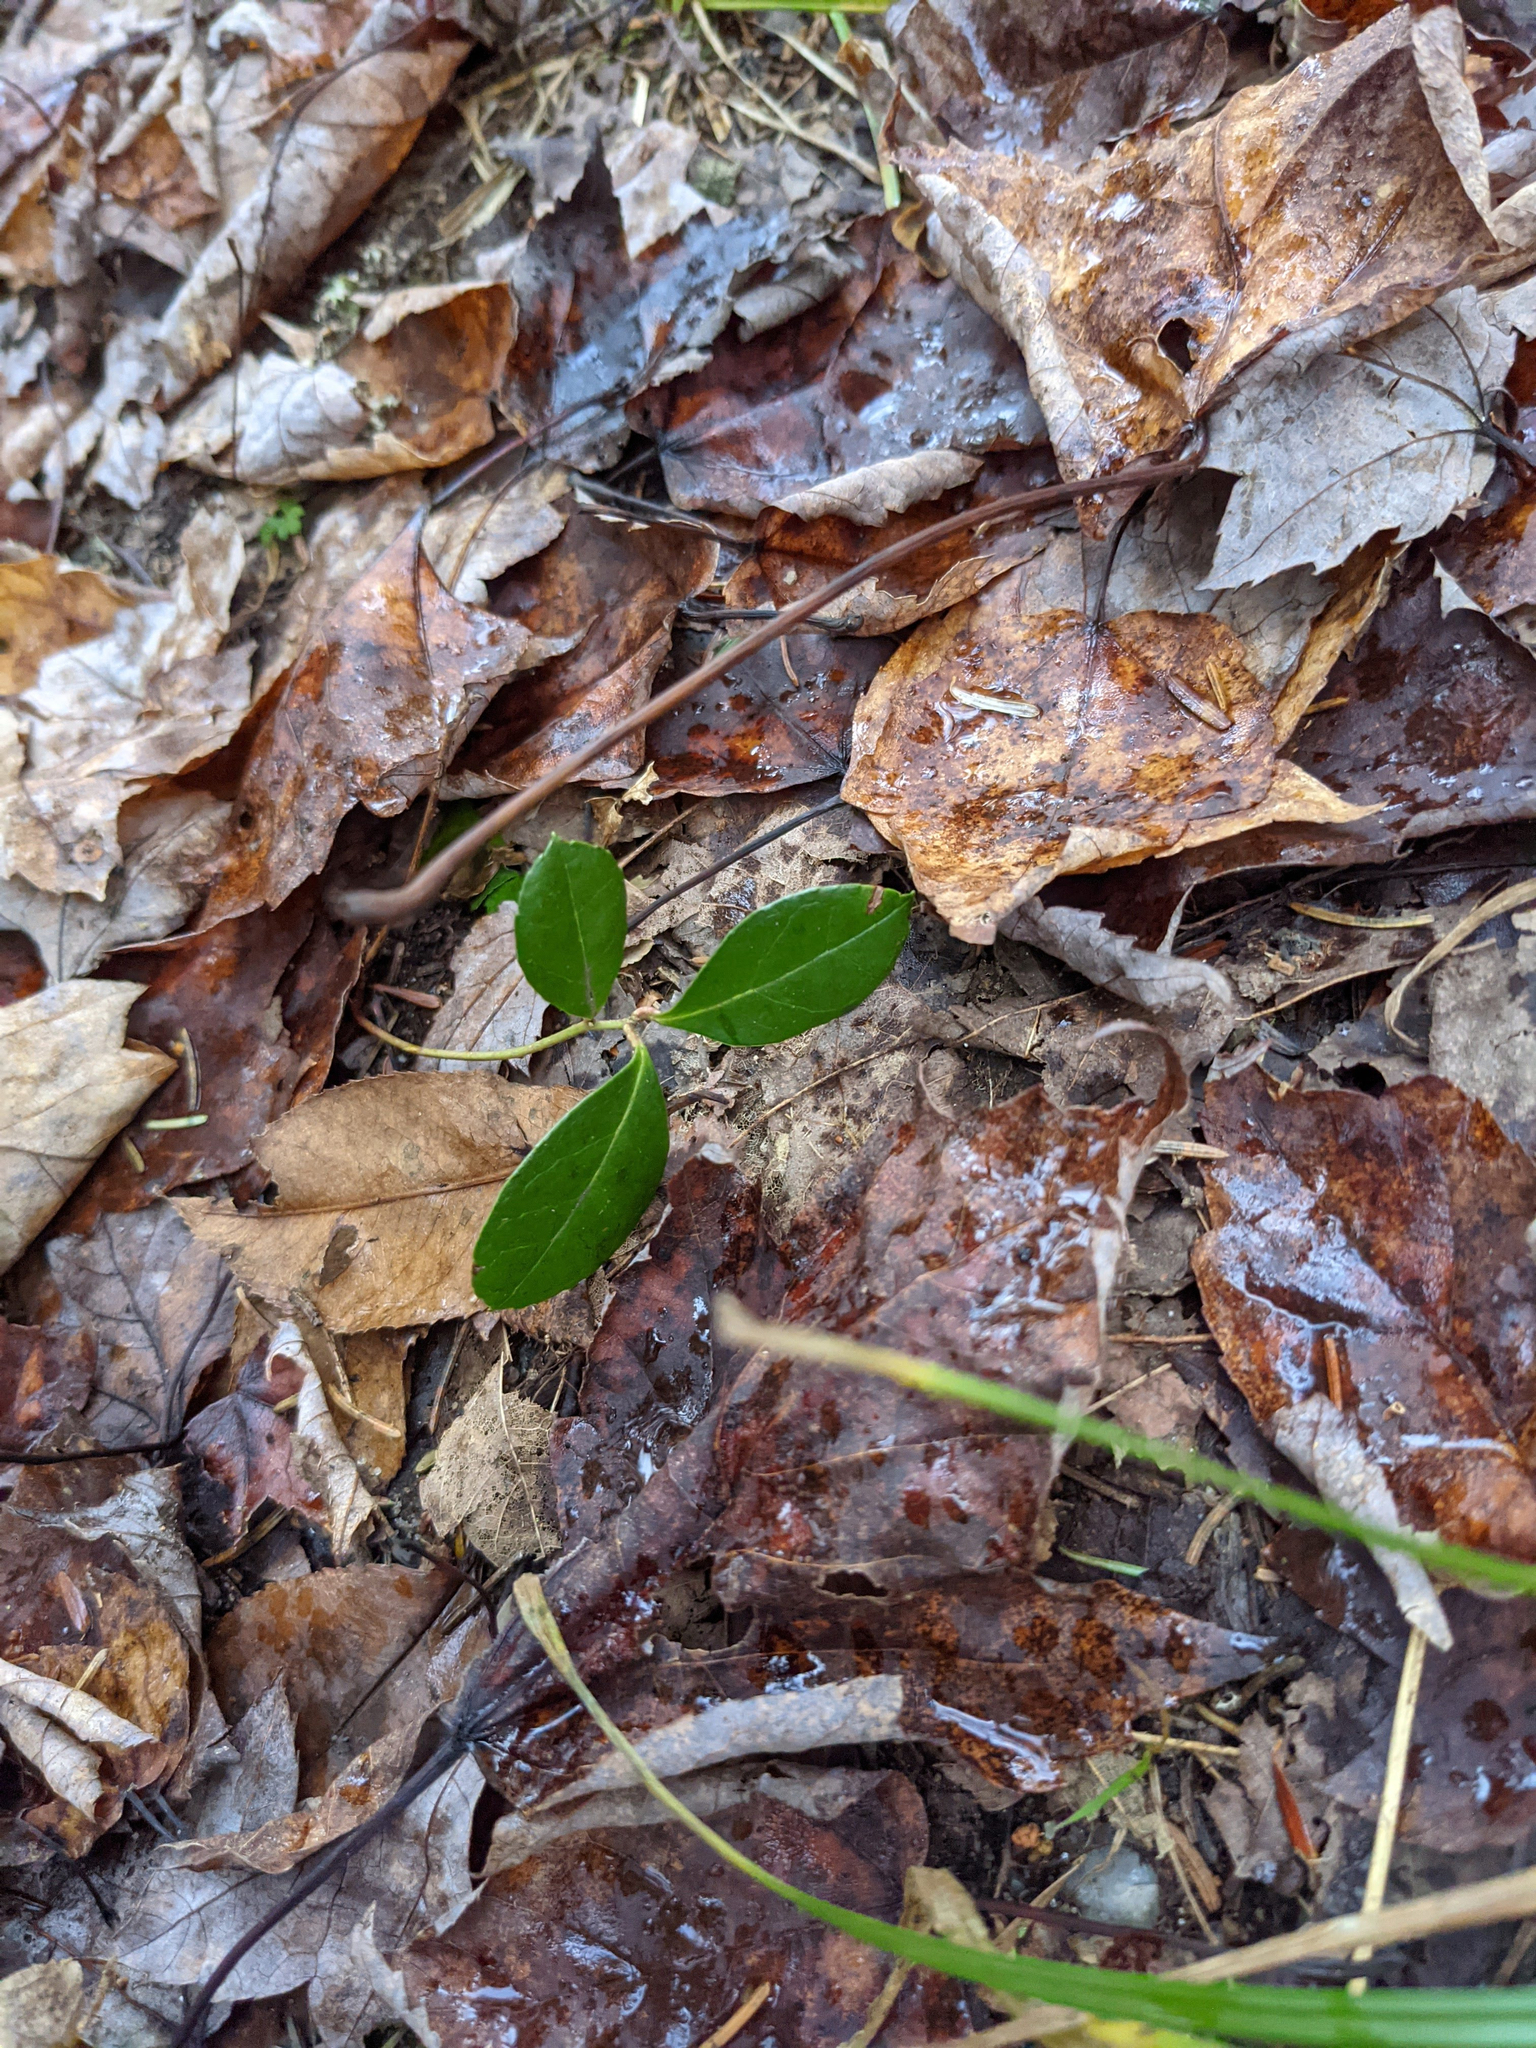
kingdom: Plantae
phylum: Tracheophyta
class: Magnoliopsida
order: Ericales
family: Ericaceae
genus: Gaultheria
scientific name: Gaultheria procumbens
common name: Checkerberry
